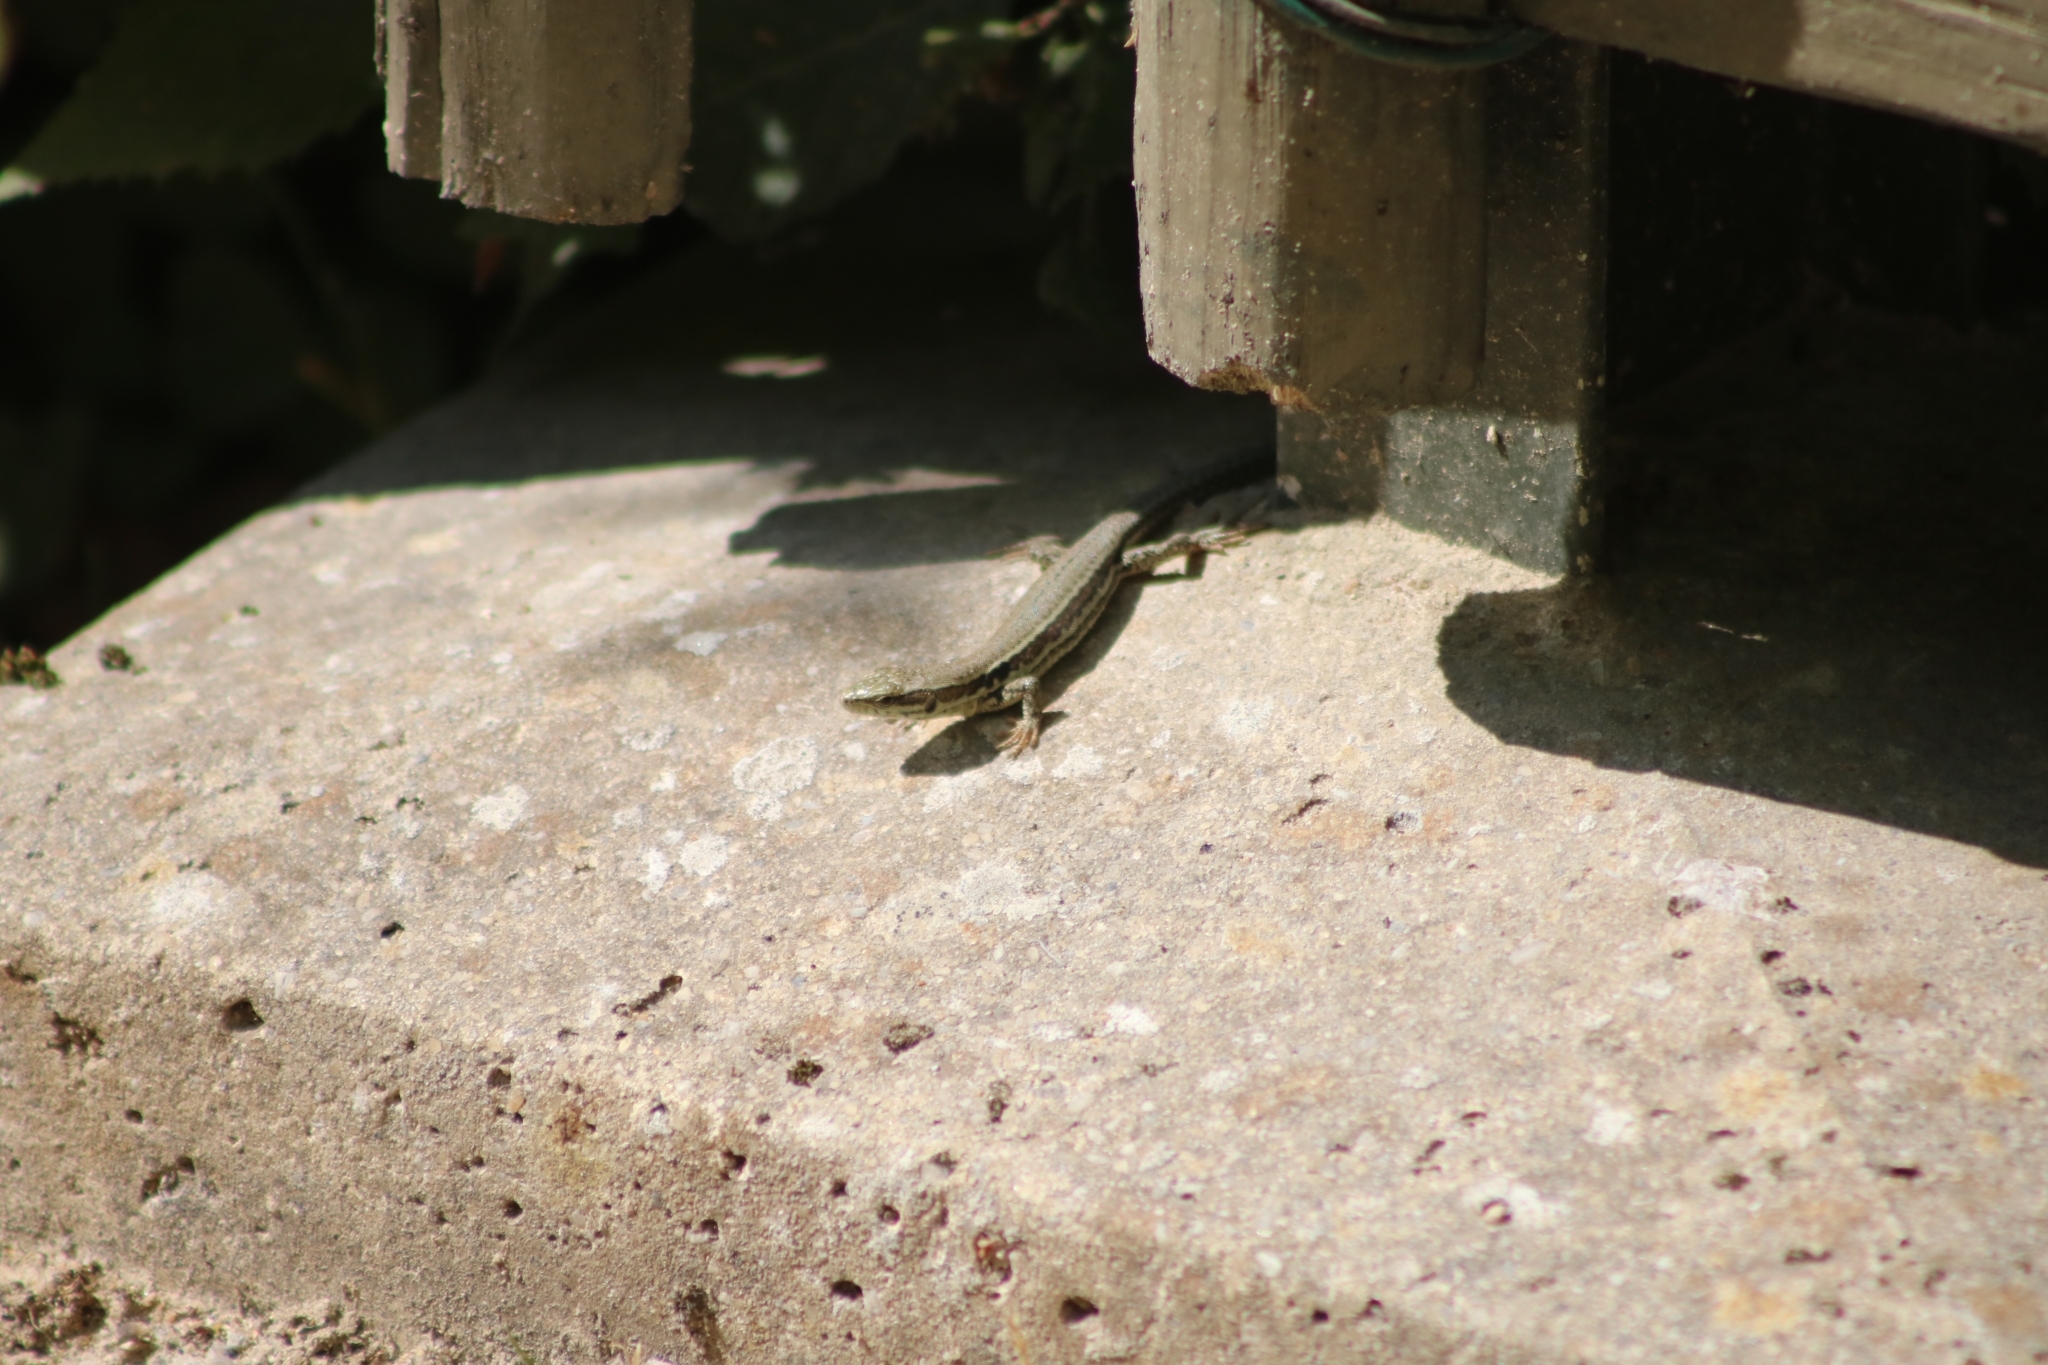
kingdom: Animalia
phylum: Chordata
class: Squamata
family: Lacertidae
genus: Podarcis
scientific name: Podarcis muralis
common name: Common wall lizard
